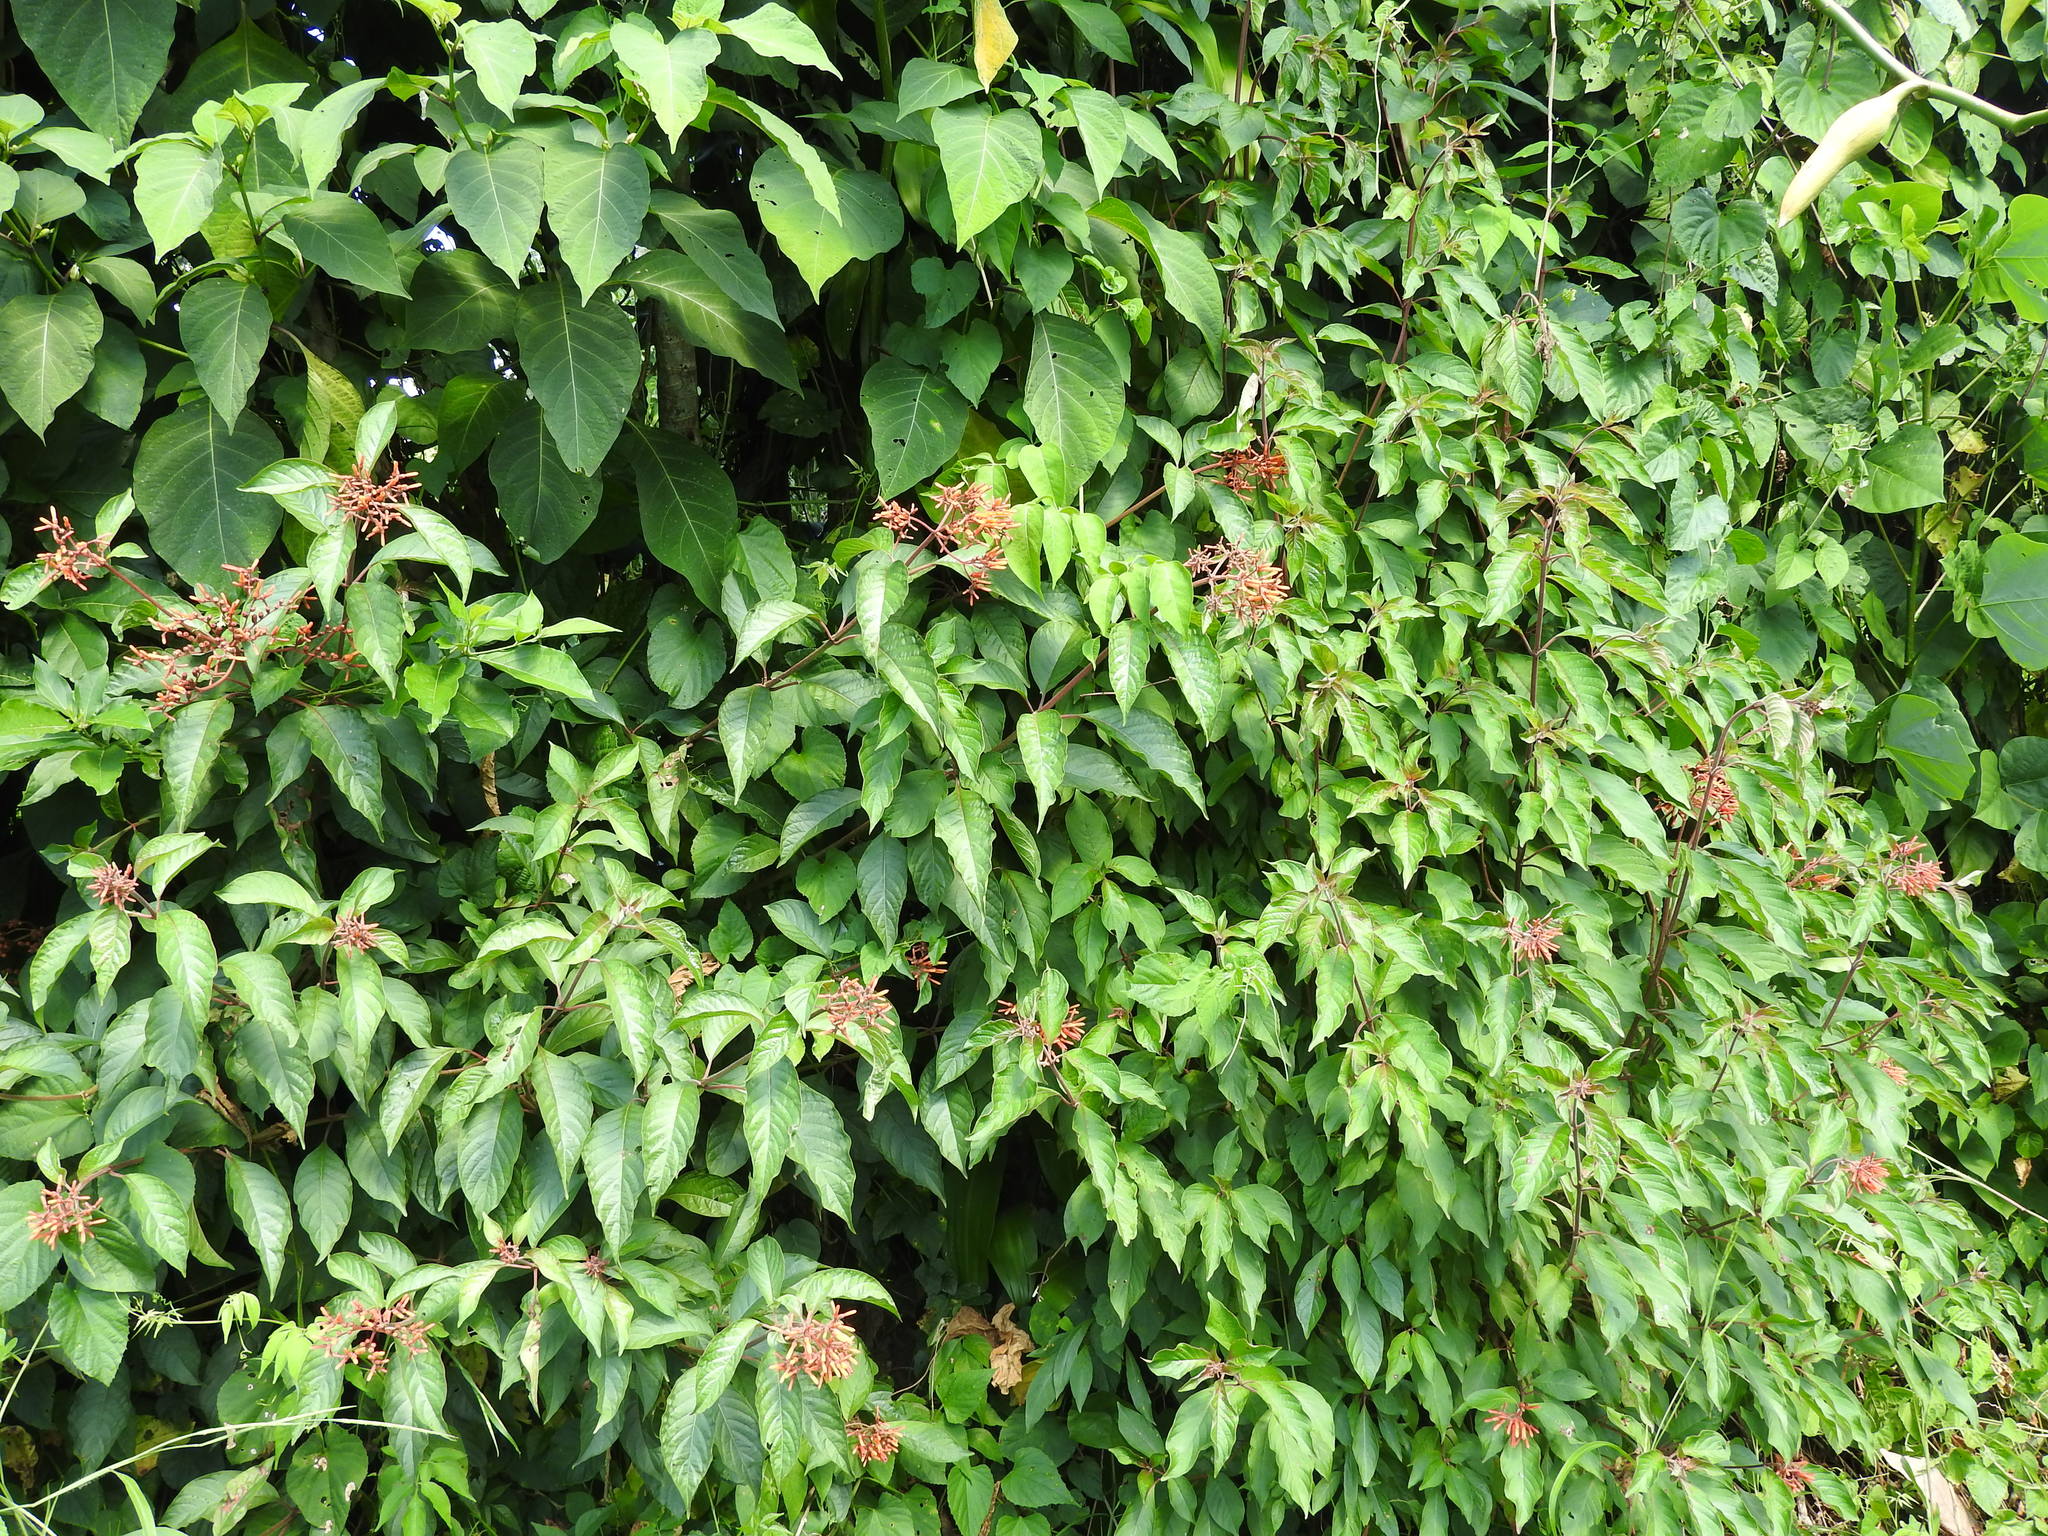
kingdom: Plantae
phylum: Tracheophyta
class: Magnoliopsida
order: Gentianales
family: Rubiaceae
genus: Hamelia
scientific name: Hamelia patens
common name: Redhead
